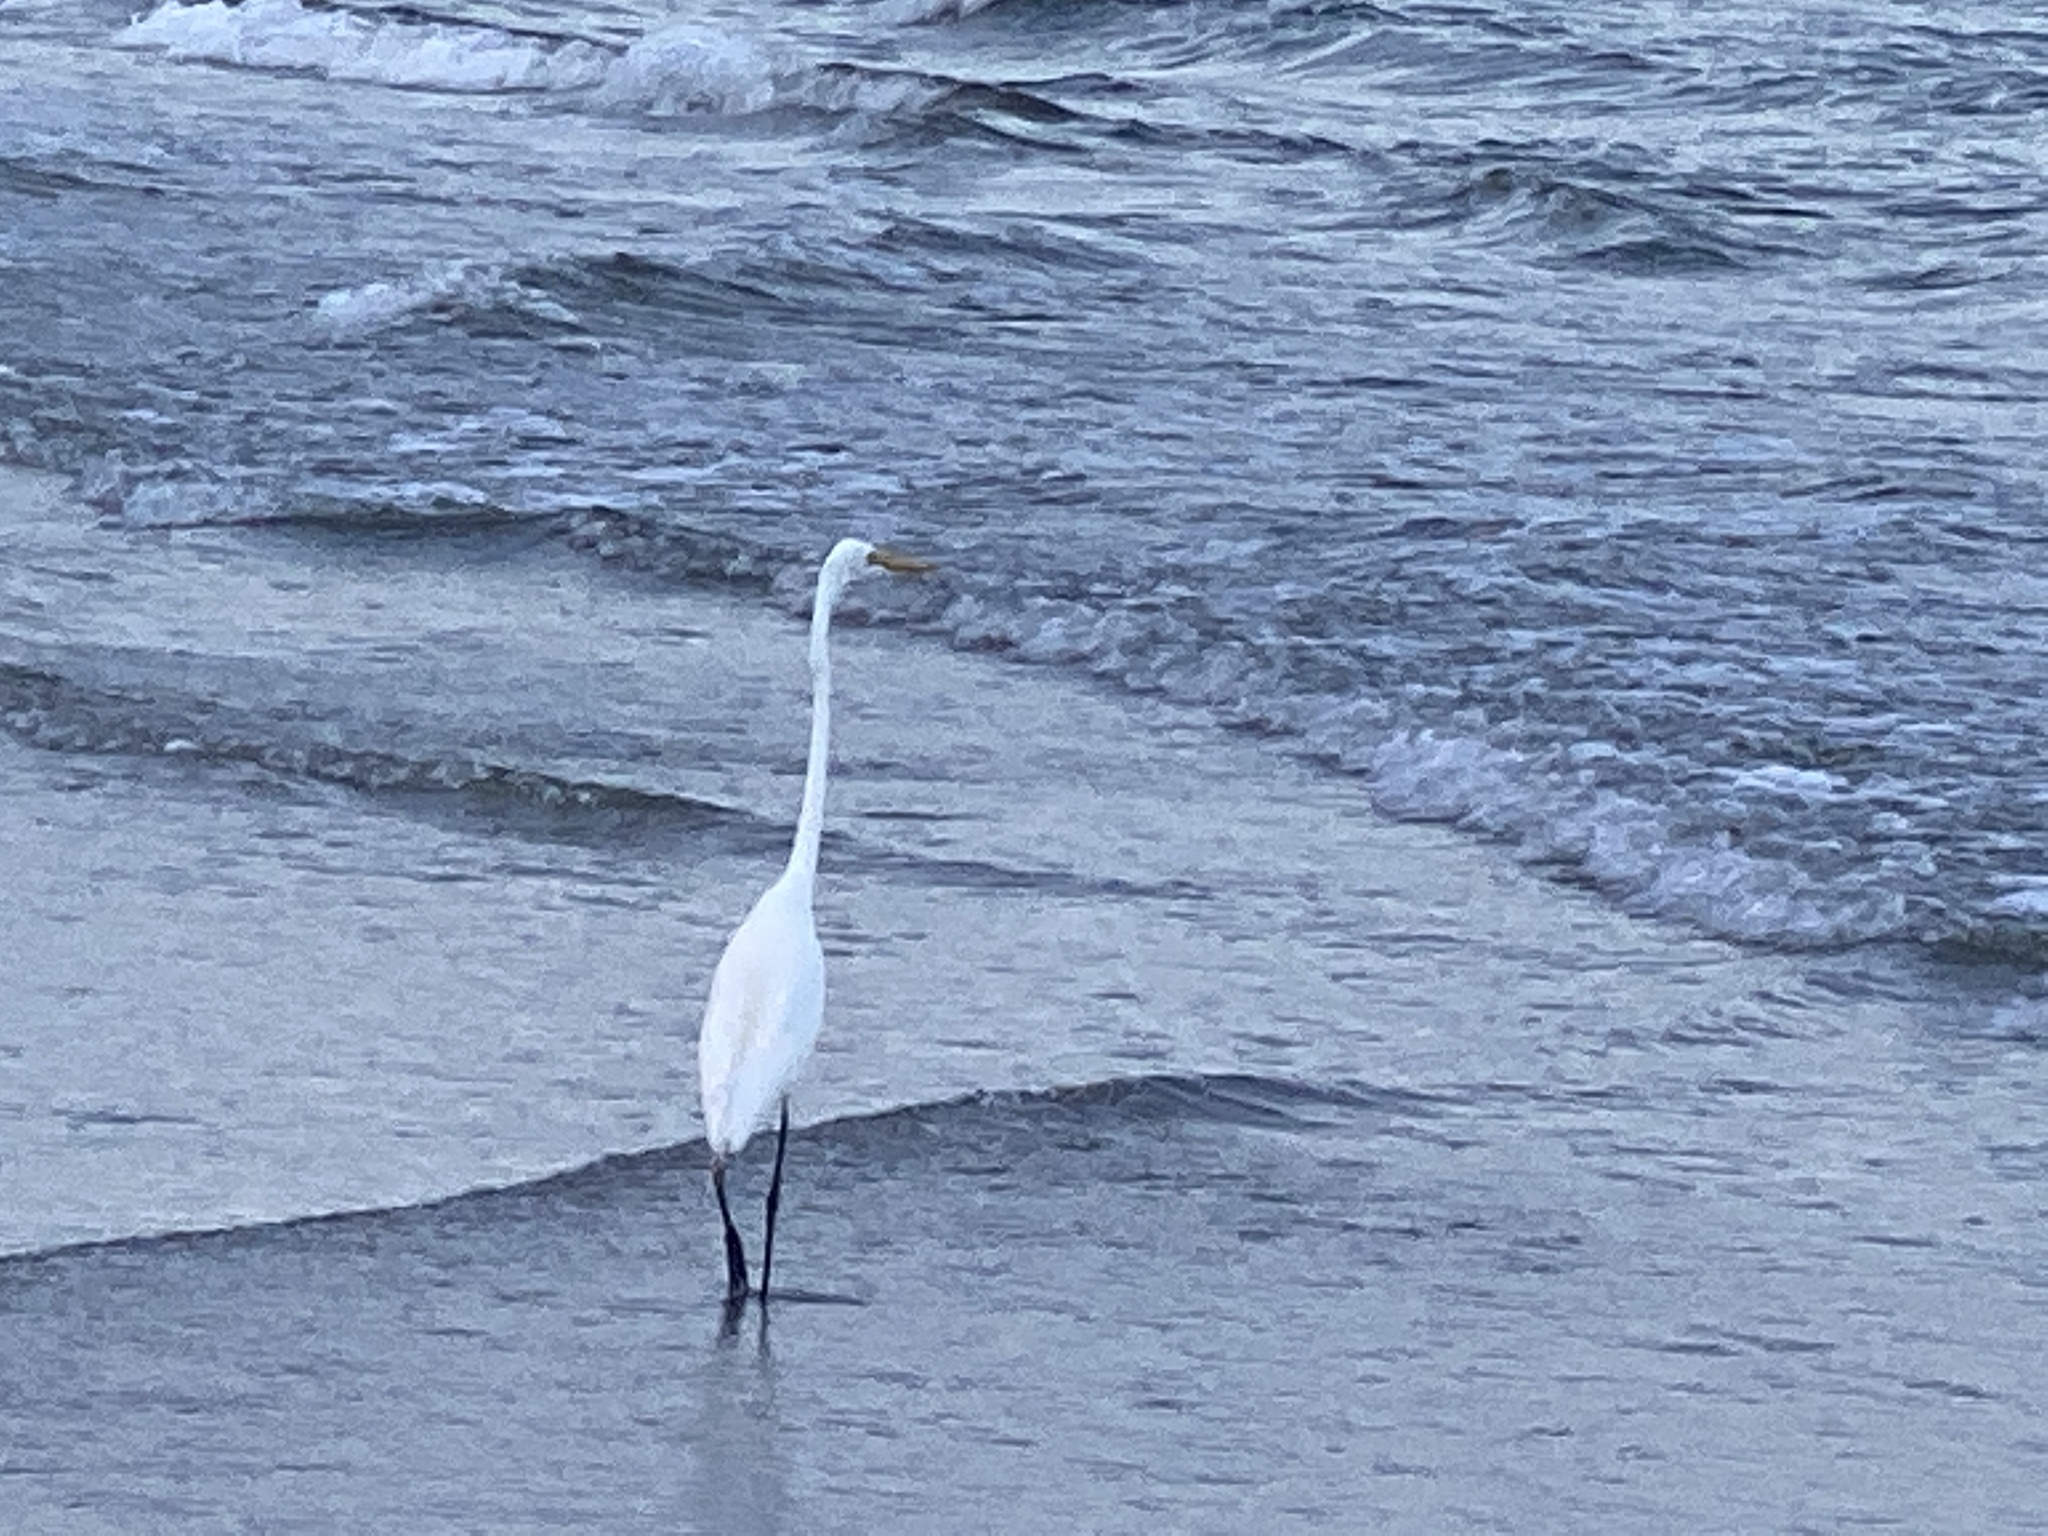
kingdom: Animalia
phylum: Chordata
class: Aves
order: Pelecaniformes
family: Ardeidae
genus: Ardea
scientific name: Ardea alba
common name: Great egret
